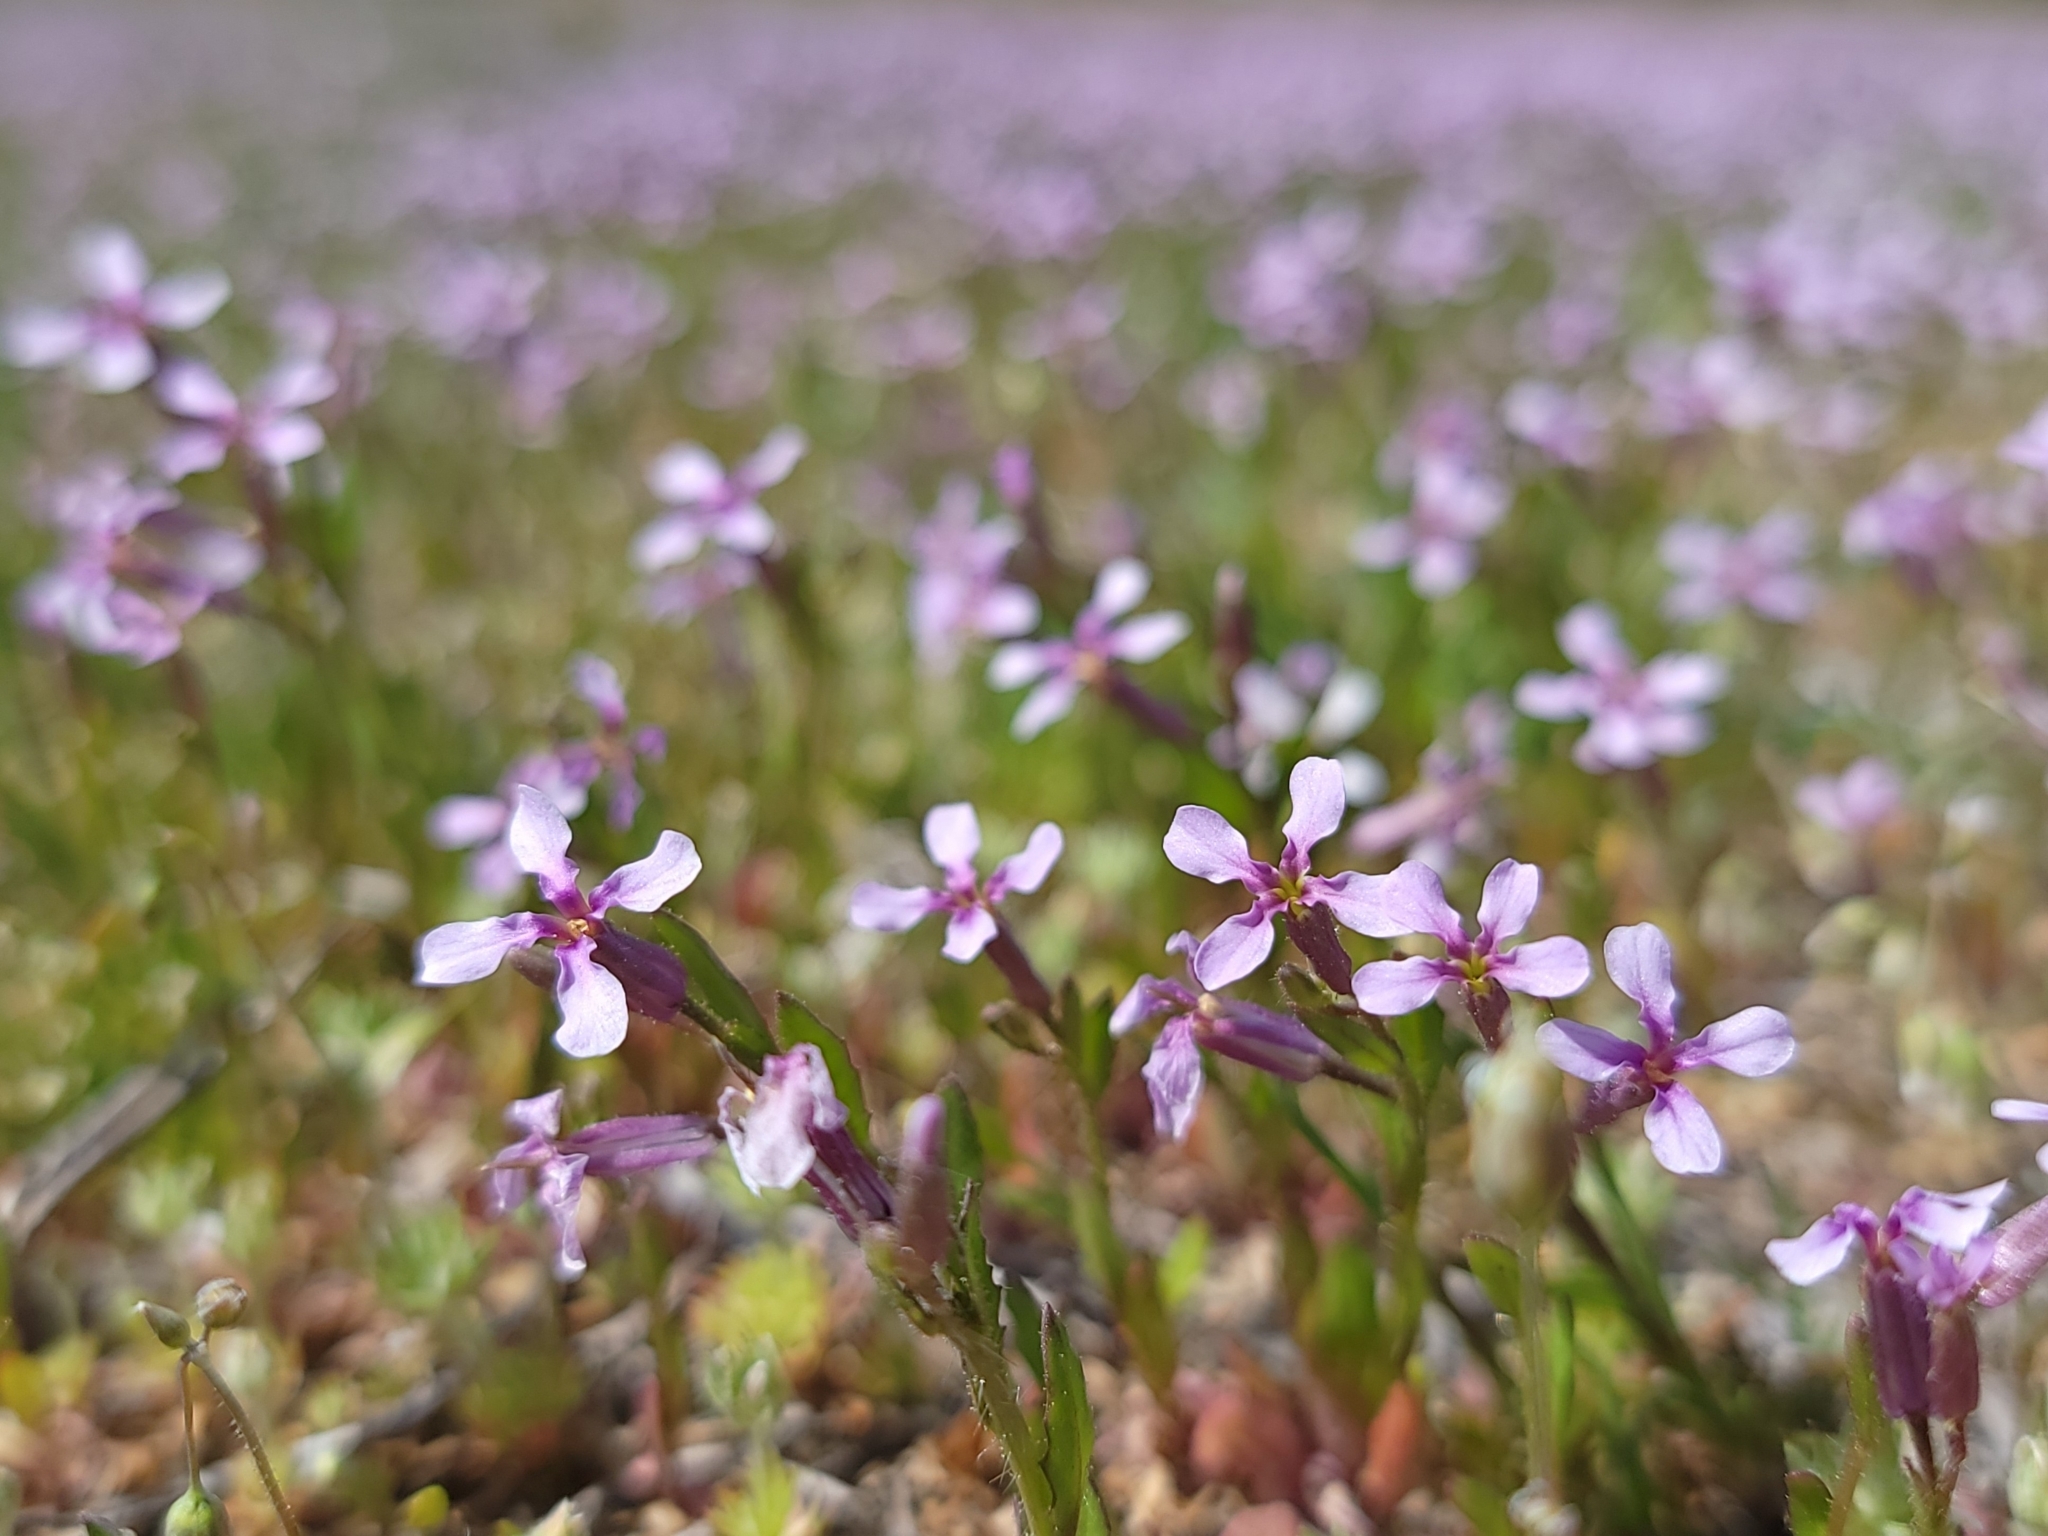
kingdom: Plantae
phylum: Tracheophyta
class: Magnoliopsida
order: Brassicales
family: Brassicaceae
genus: Chorispora
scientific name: Chorispora tenella
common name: Crossflower
